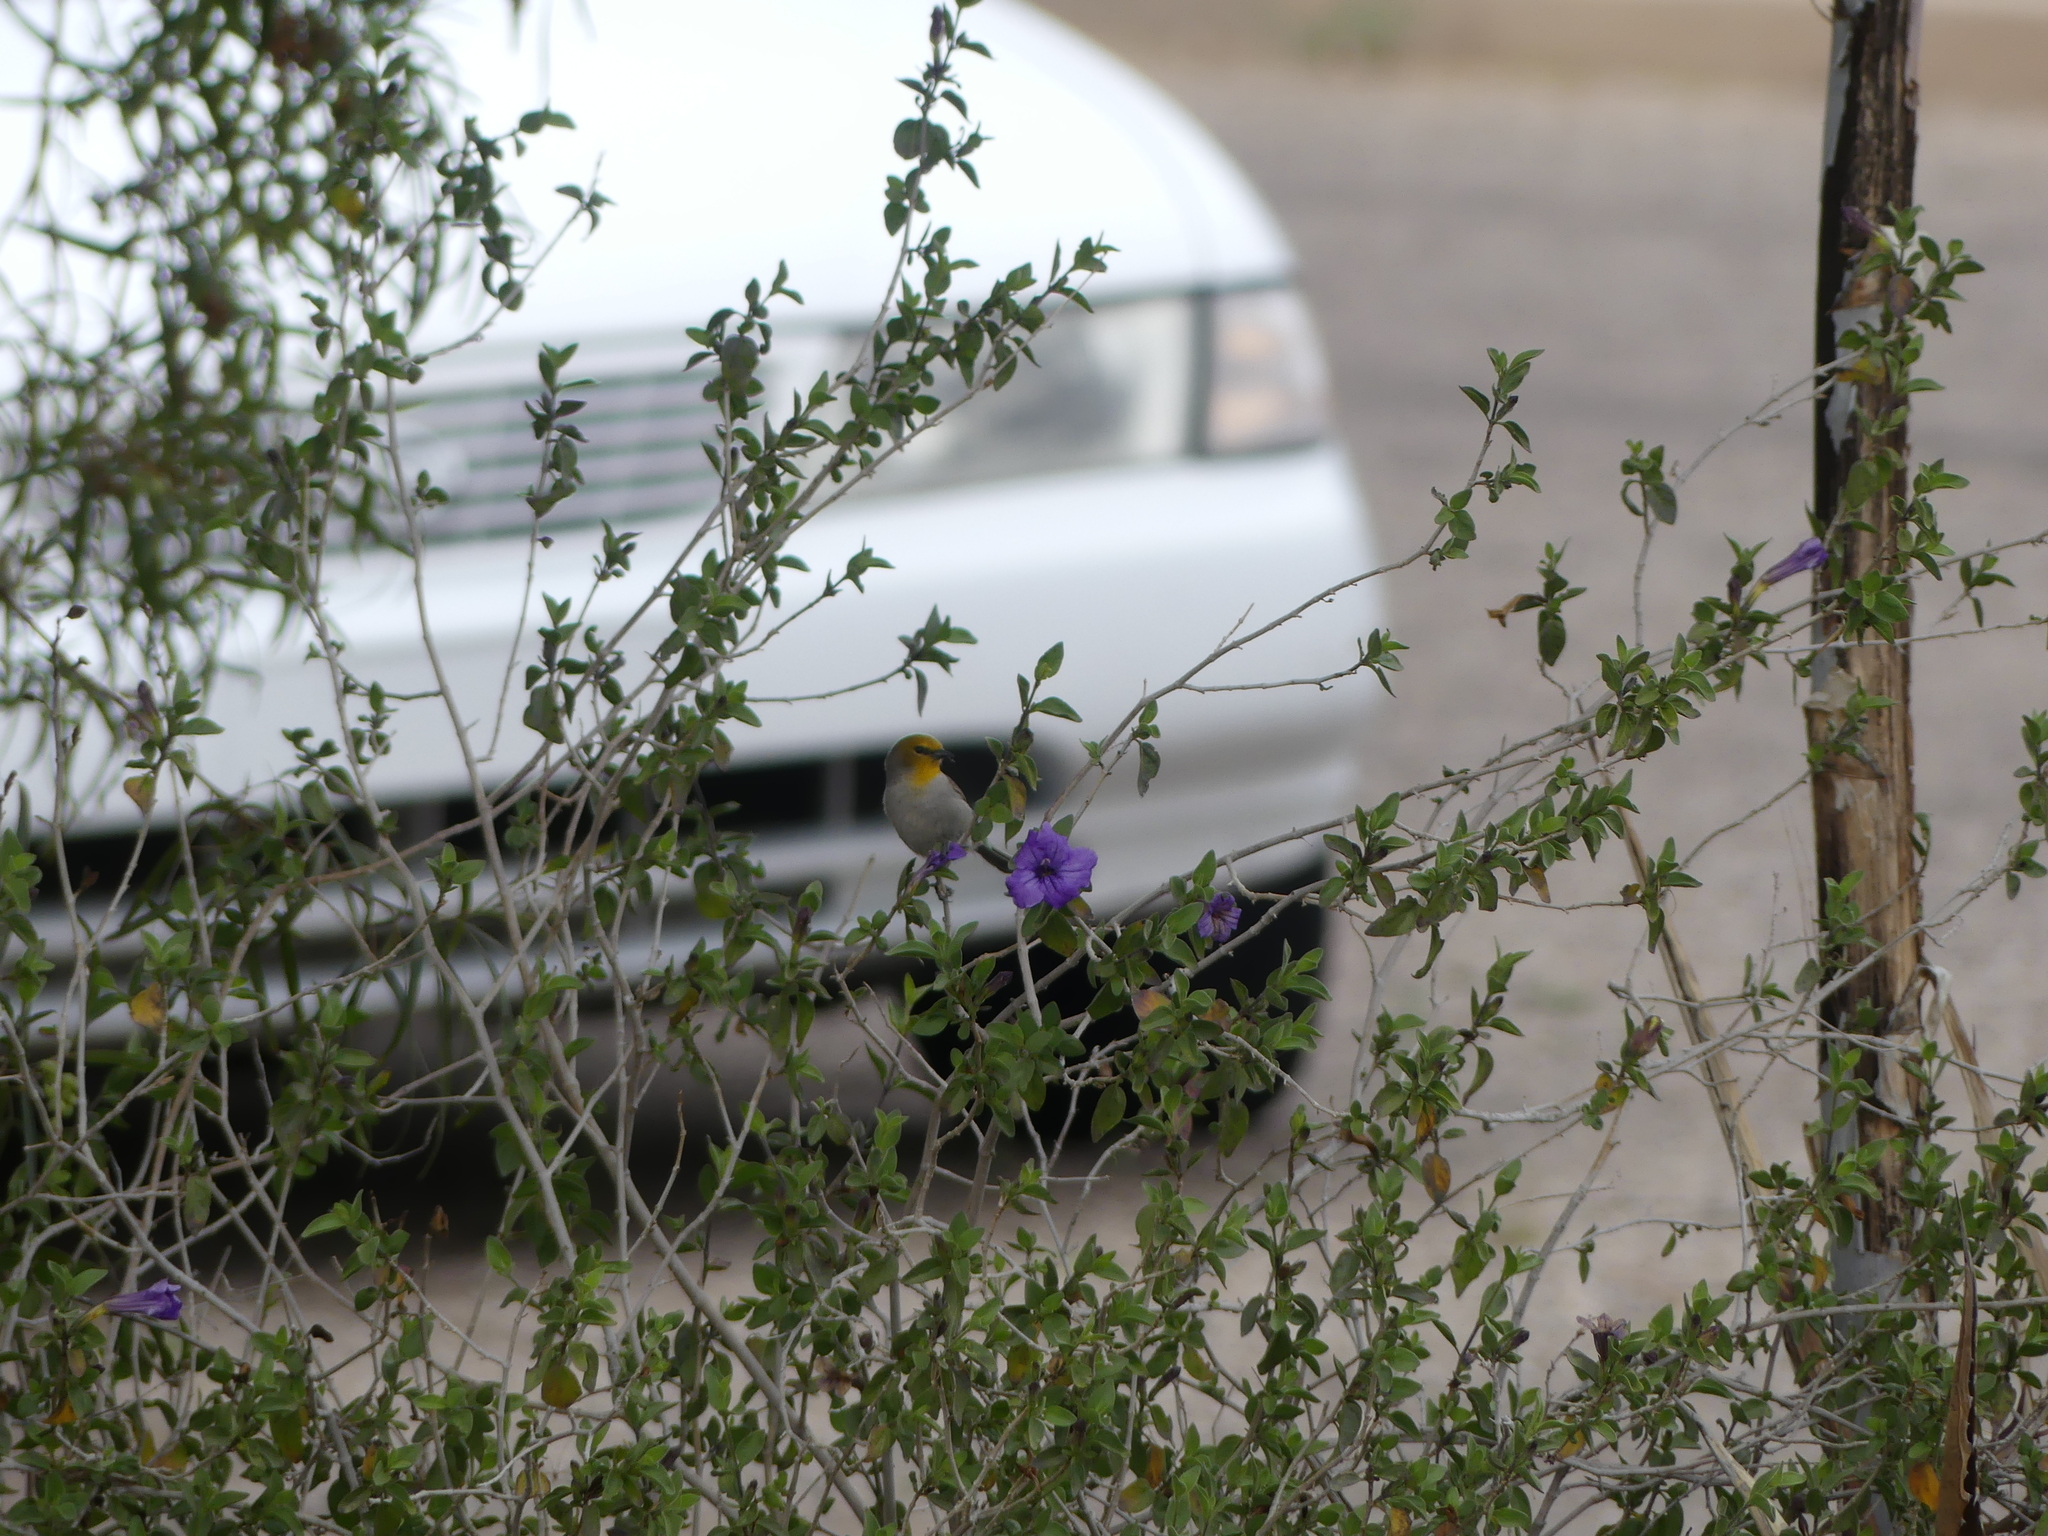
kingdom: Animalia
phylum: Chordata
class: Aves
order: Passeriformes
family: Remizidae
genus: Auriparus
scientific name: Auriparus flaviceps
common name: Verdin
